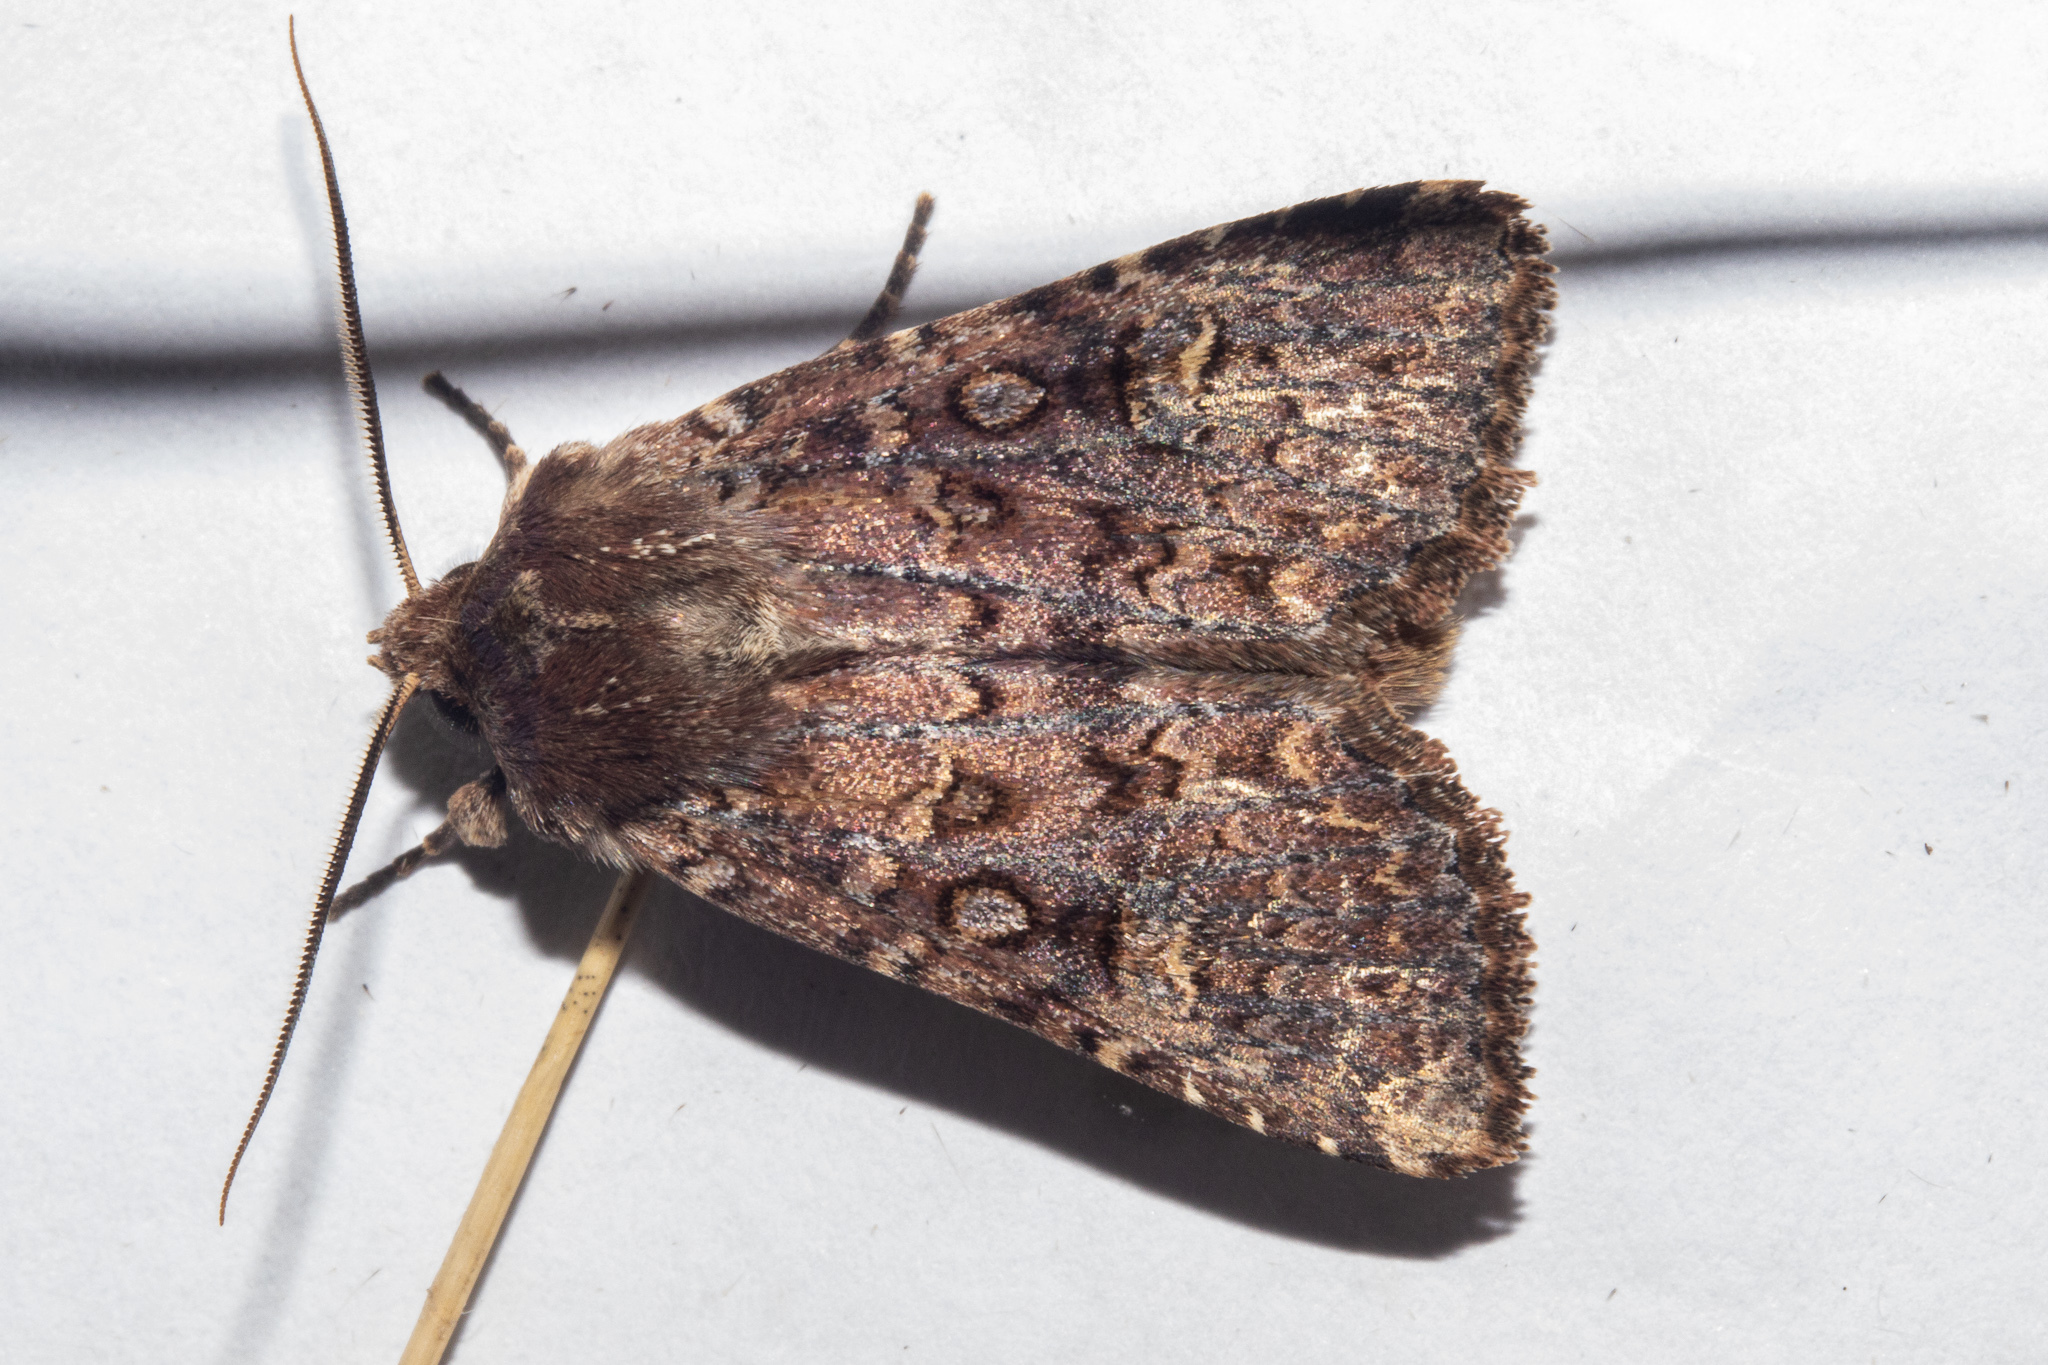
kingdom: Animalia
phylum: Arthropoda
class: Insecta
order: Lepidoptera
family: Noctuidae
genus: Ichneutica
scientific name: Ichneutica agorastis
